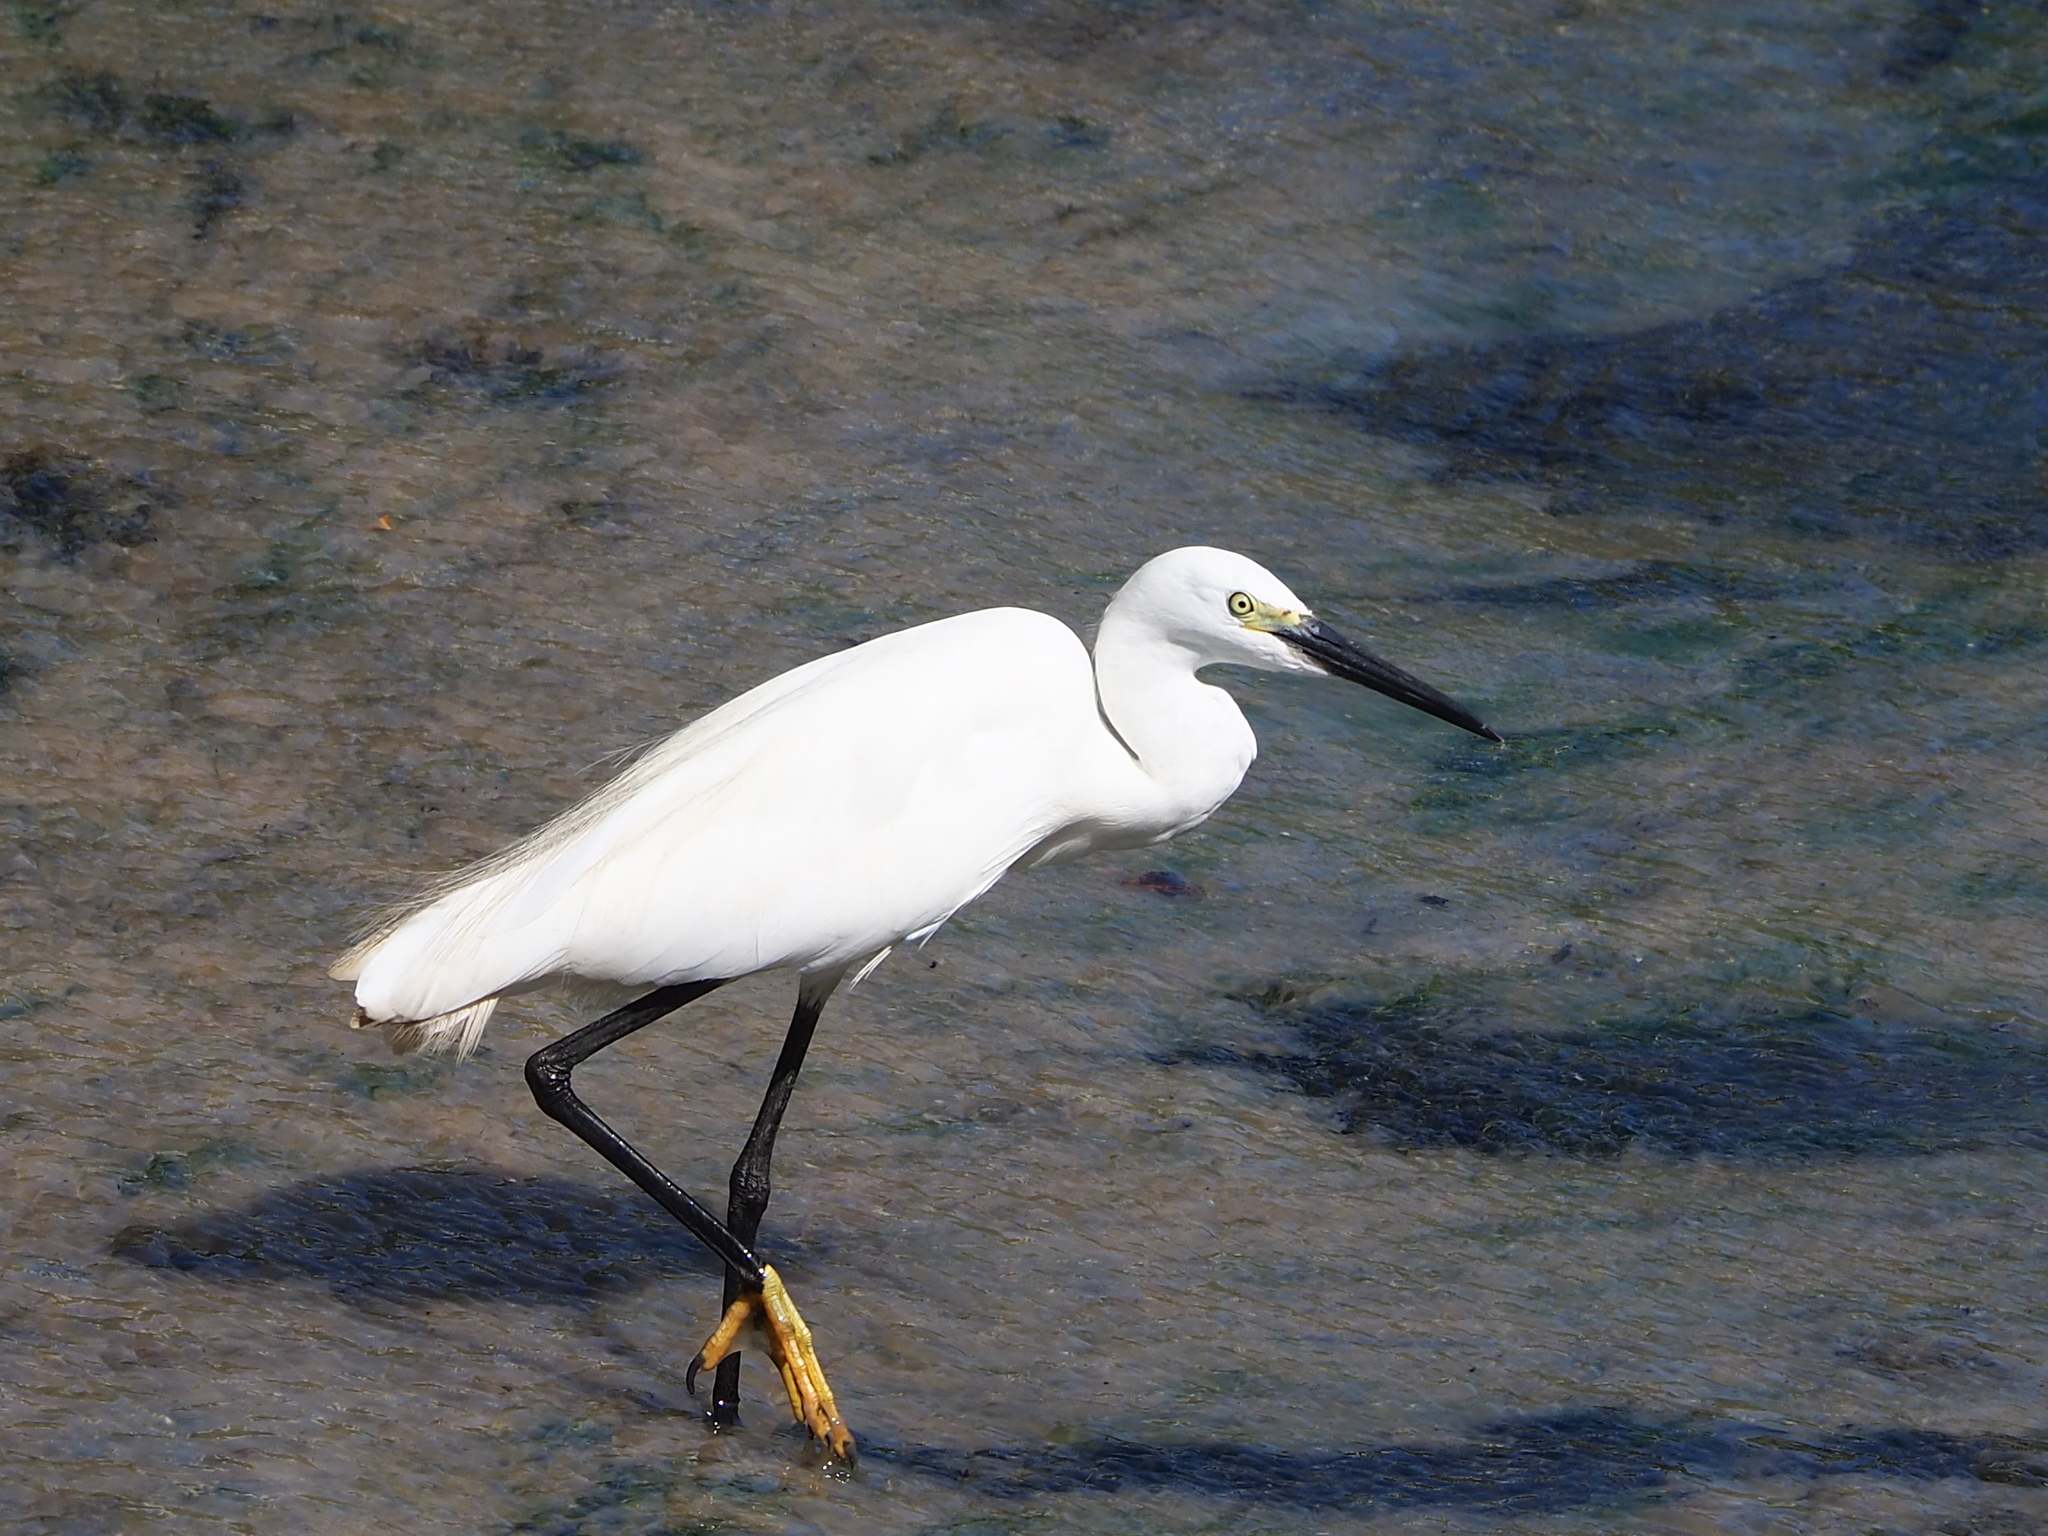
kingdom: Animalia
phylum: Chordata
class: Aves
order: Pelecaniformes
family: Ardeidae
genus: Egretta
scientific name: Egretta garzetta
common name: Little egret
